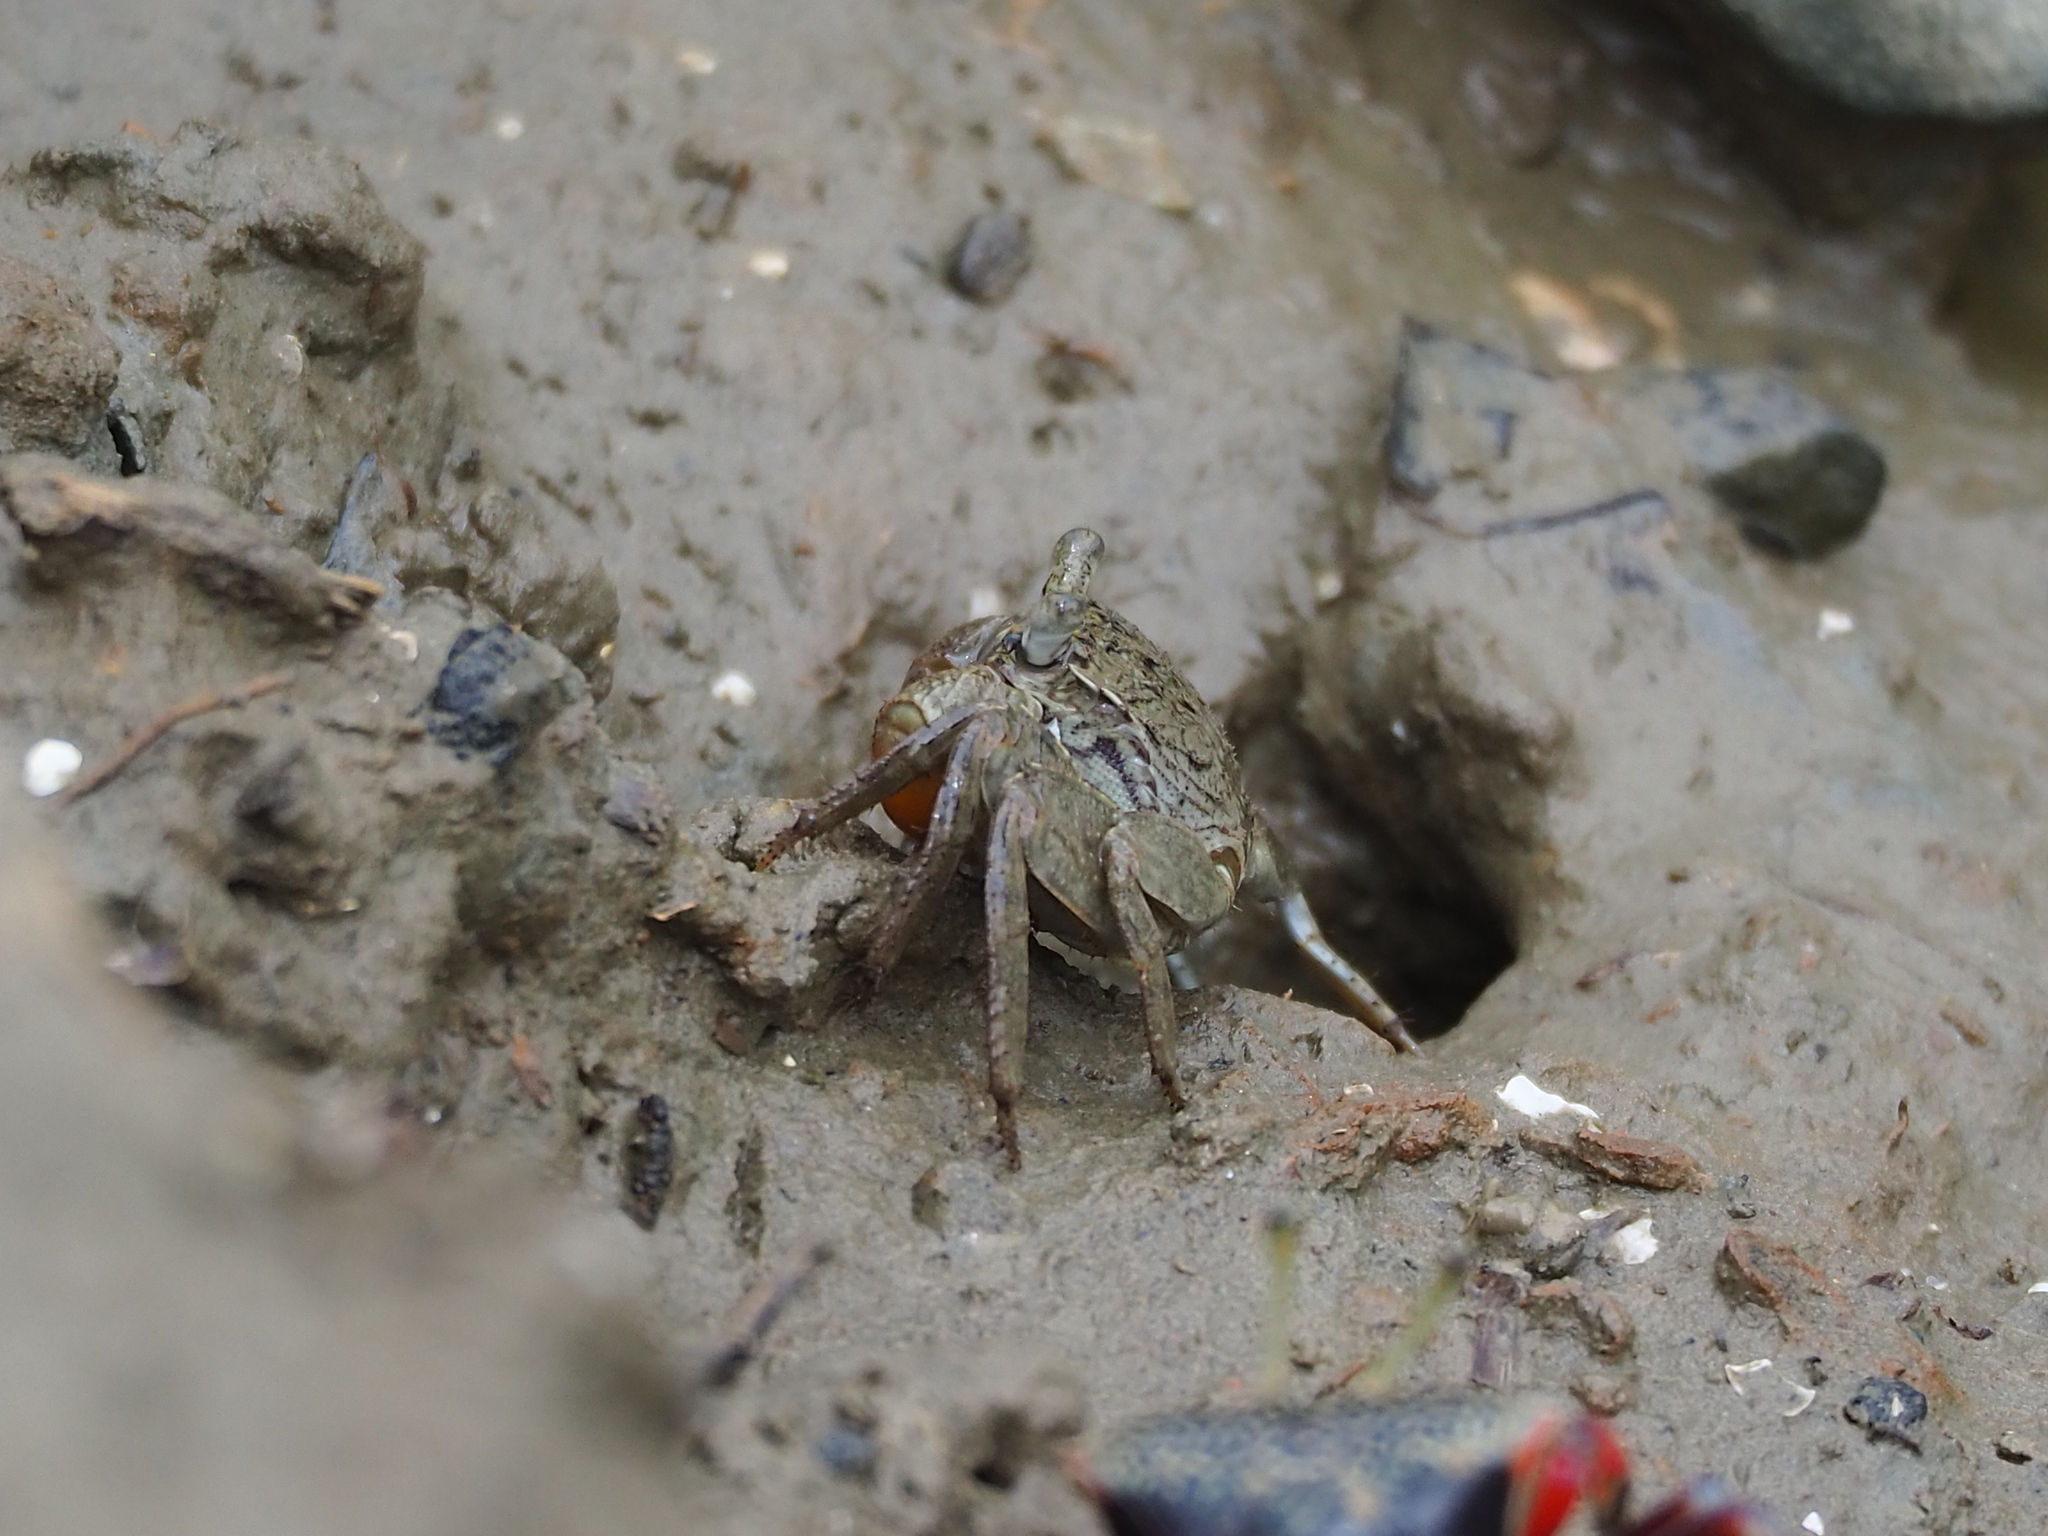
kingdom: Animalia
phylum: Arthropoda
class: Malacostraca
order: Decapoda
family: Sesarmidae
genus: Parasesarma
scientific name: Parasesarma affine
